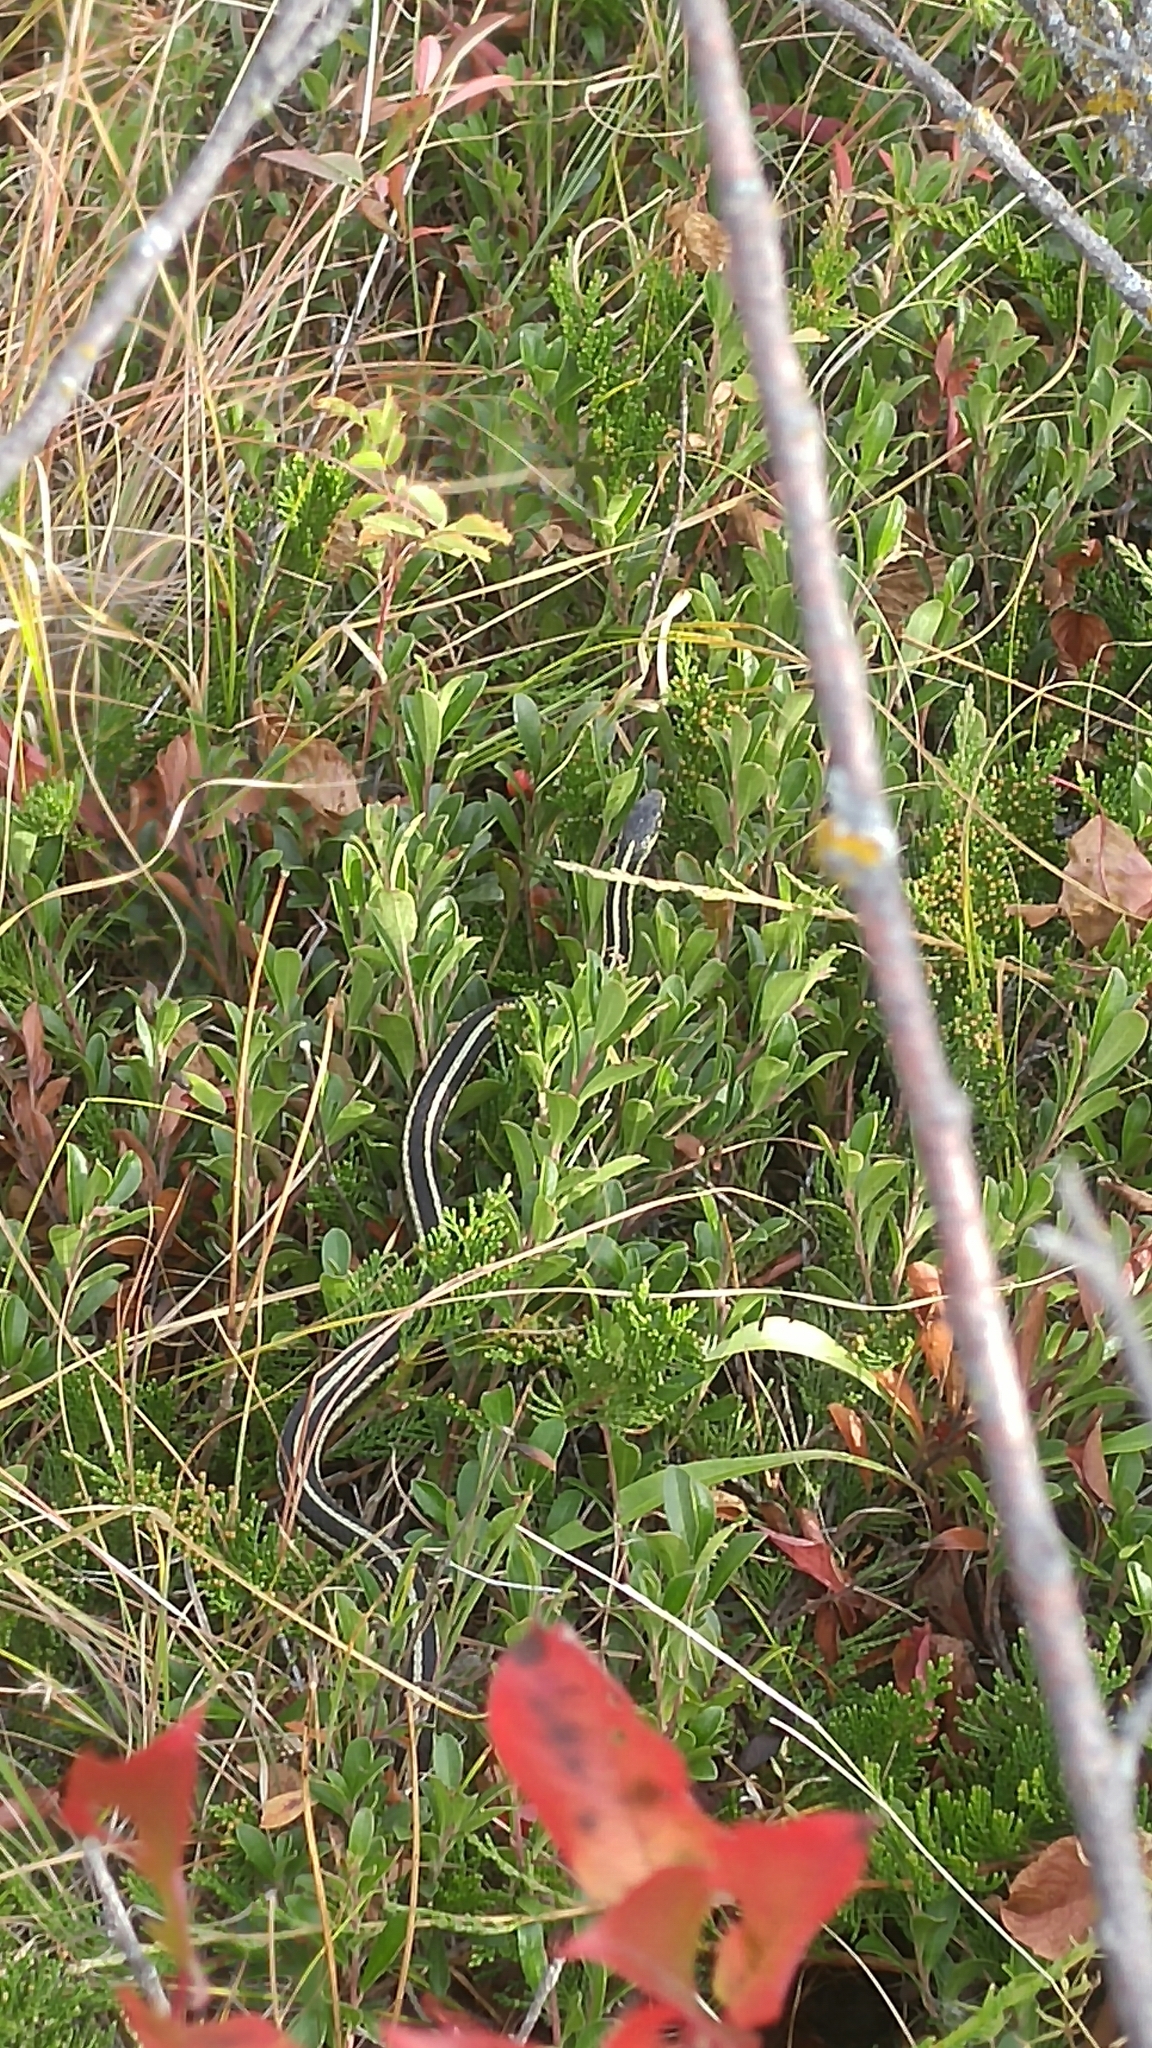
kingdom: Animalia
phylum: Chordata
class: Squamata
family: Colubridae
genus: Thamnophis
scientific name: Thamnophis sirtalis
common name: Common garter snake
